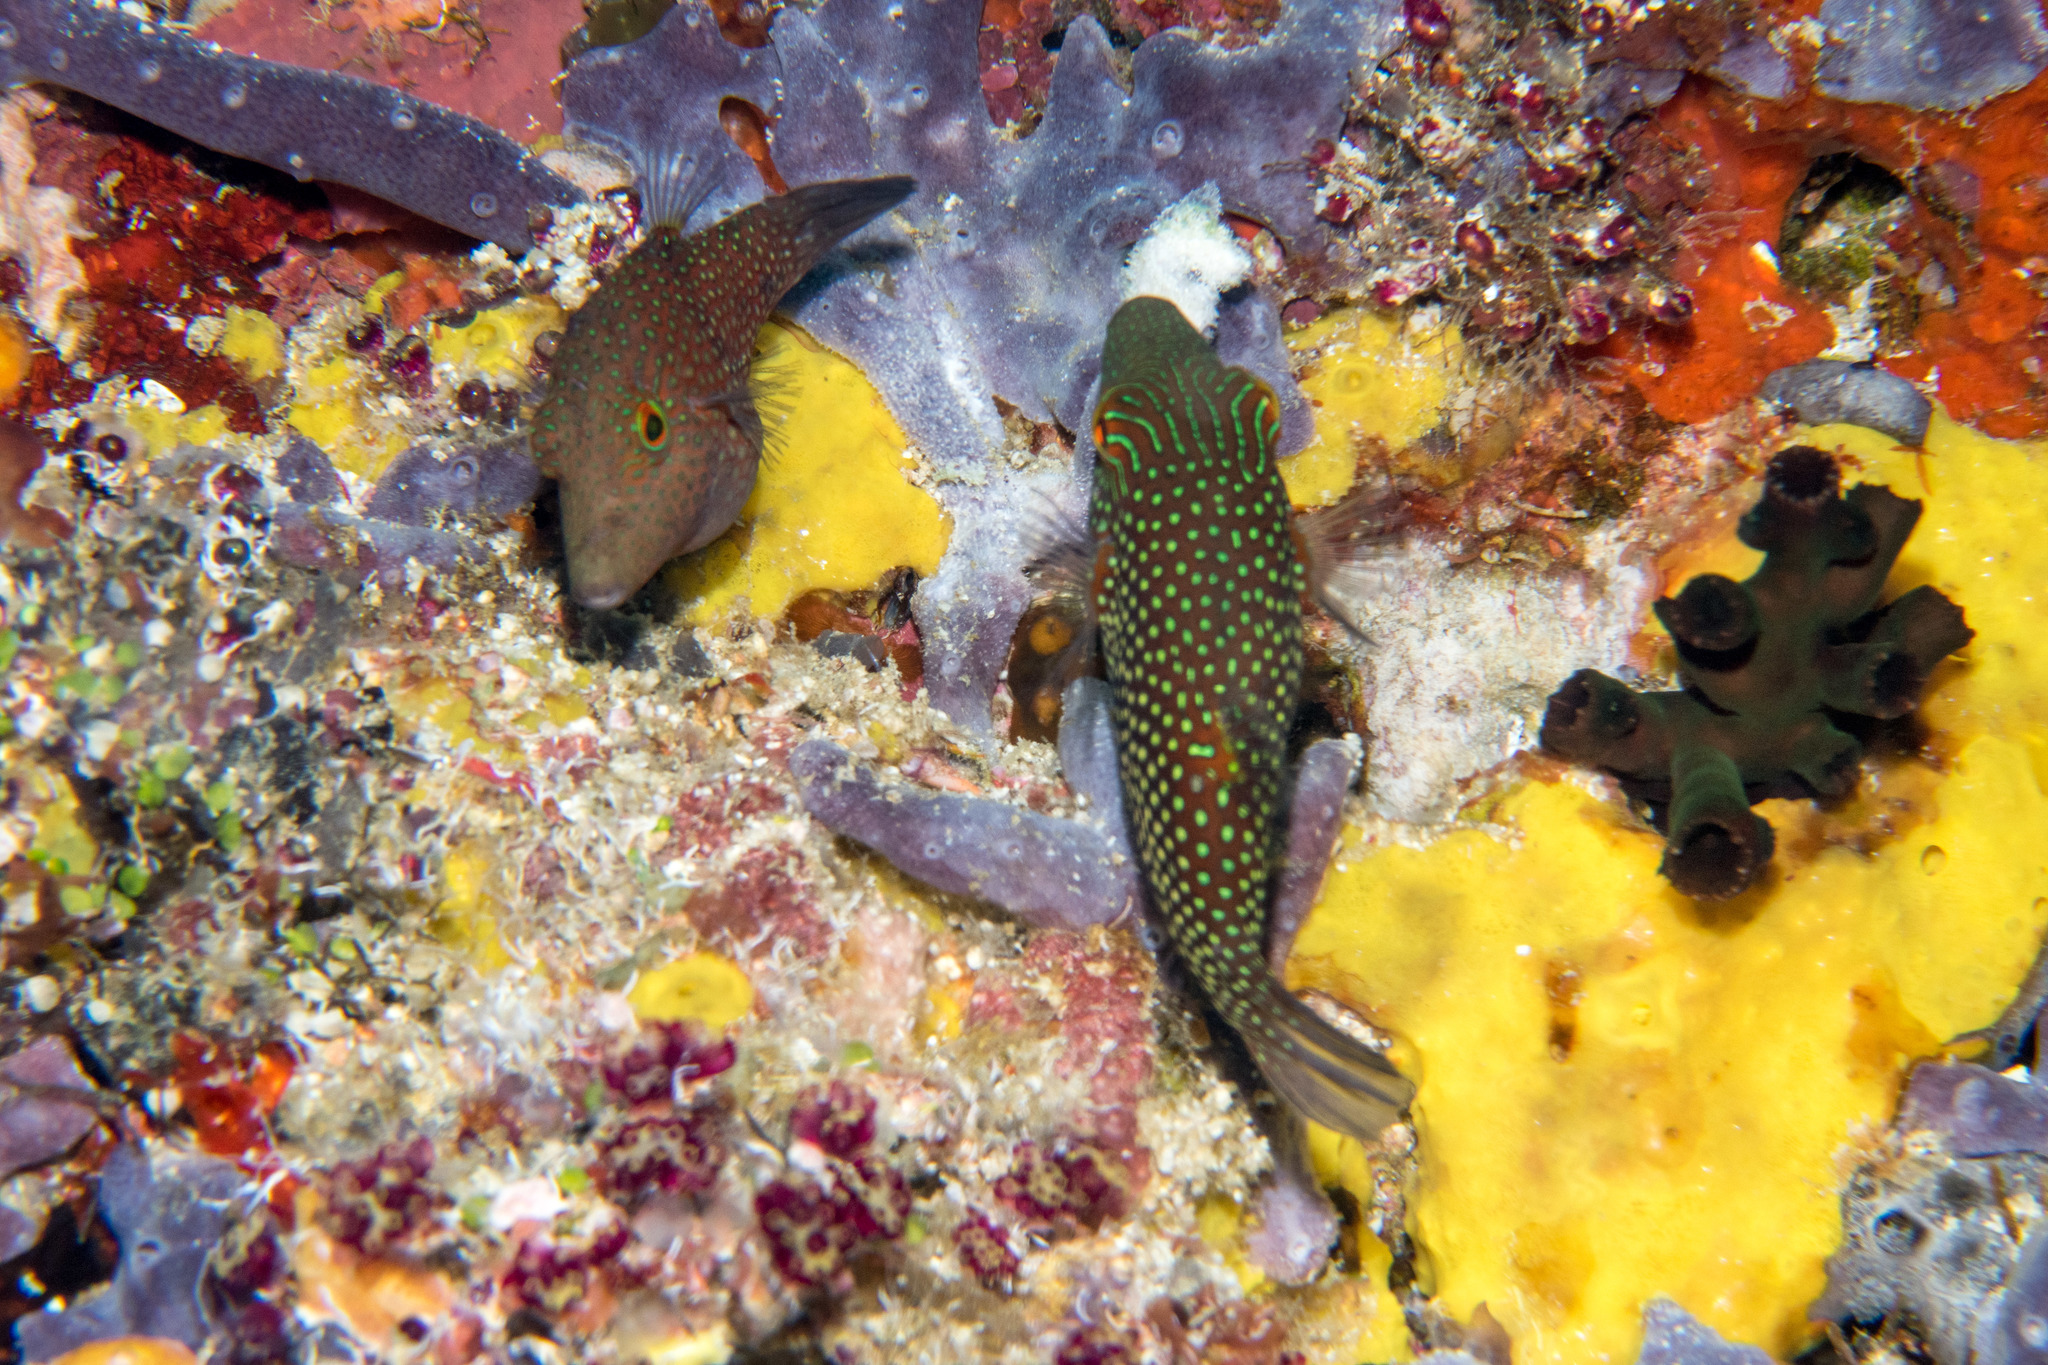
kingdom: Animalia
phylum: Chordata
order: Tetraodontiformes
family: Tetraodontidae
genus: Canthigaster
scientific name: Canthigaster janthinoptera
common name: Honeycomb toby
